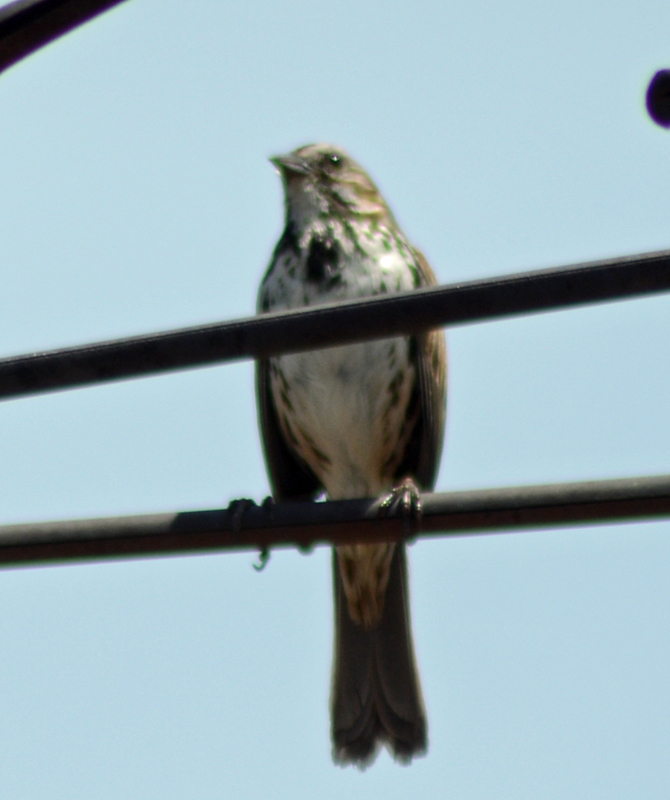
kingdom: Animalia
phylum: Chordata
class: Aves
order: Passeriformes
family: Passerellidae
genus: Melospiza
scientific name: Melospiza melodia
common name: Song sparrow
